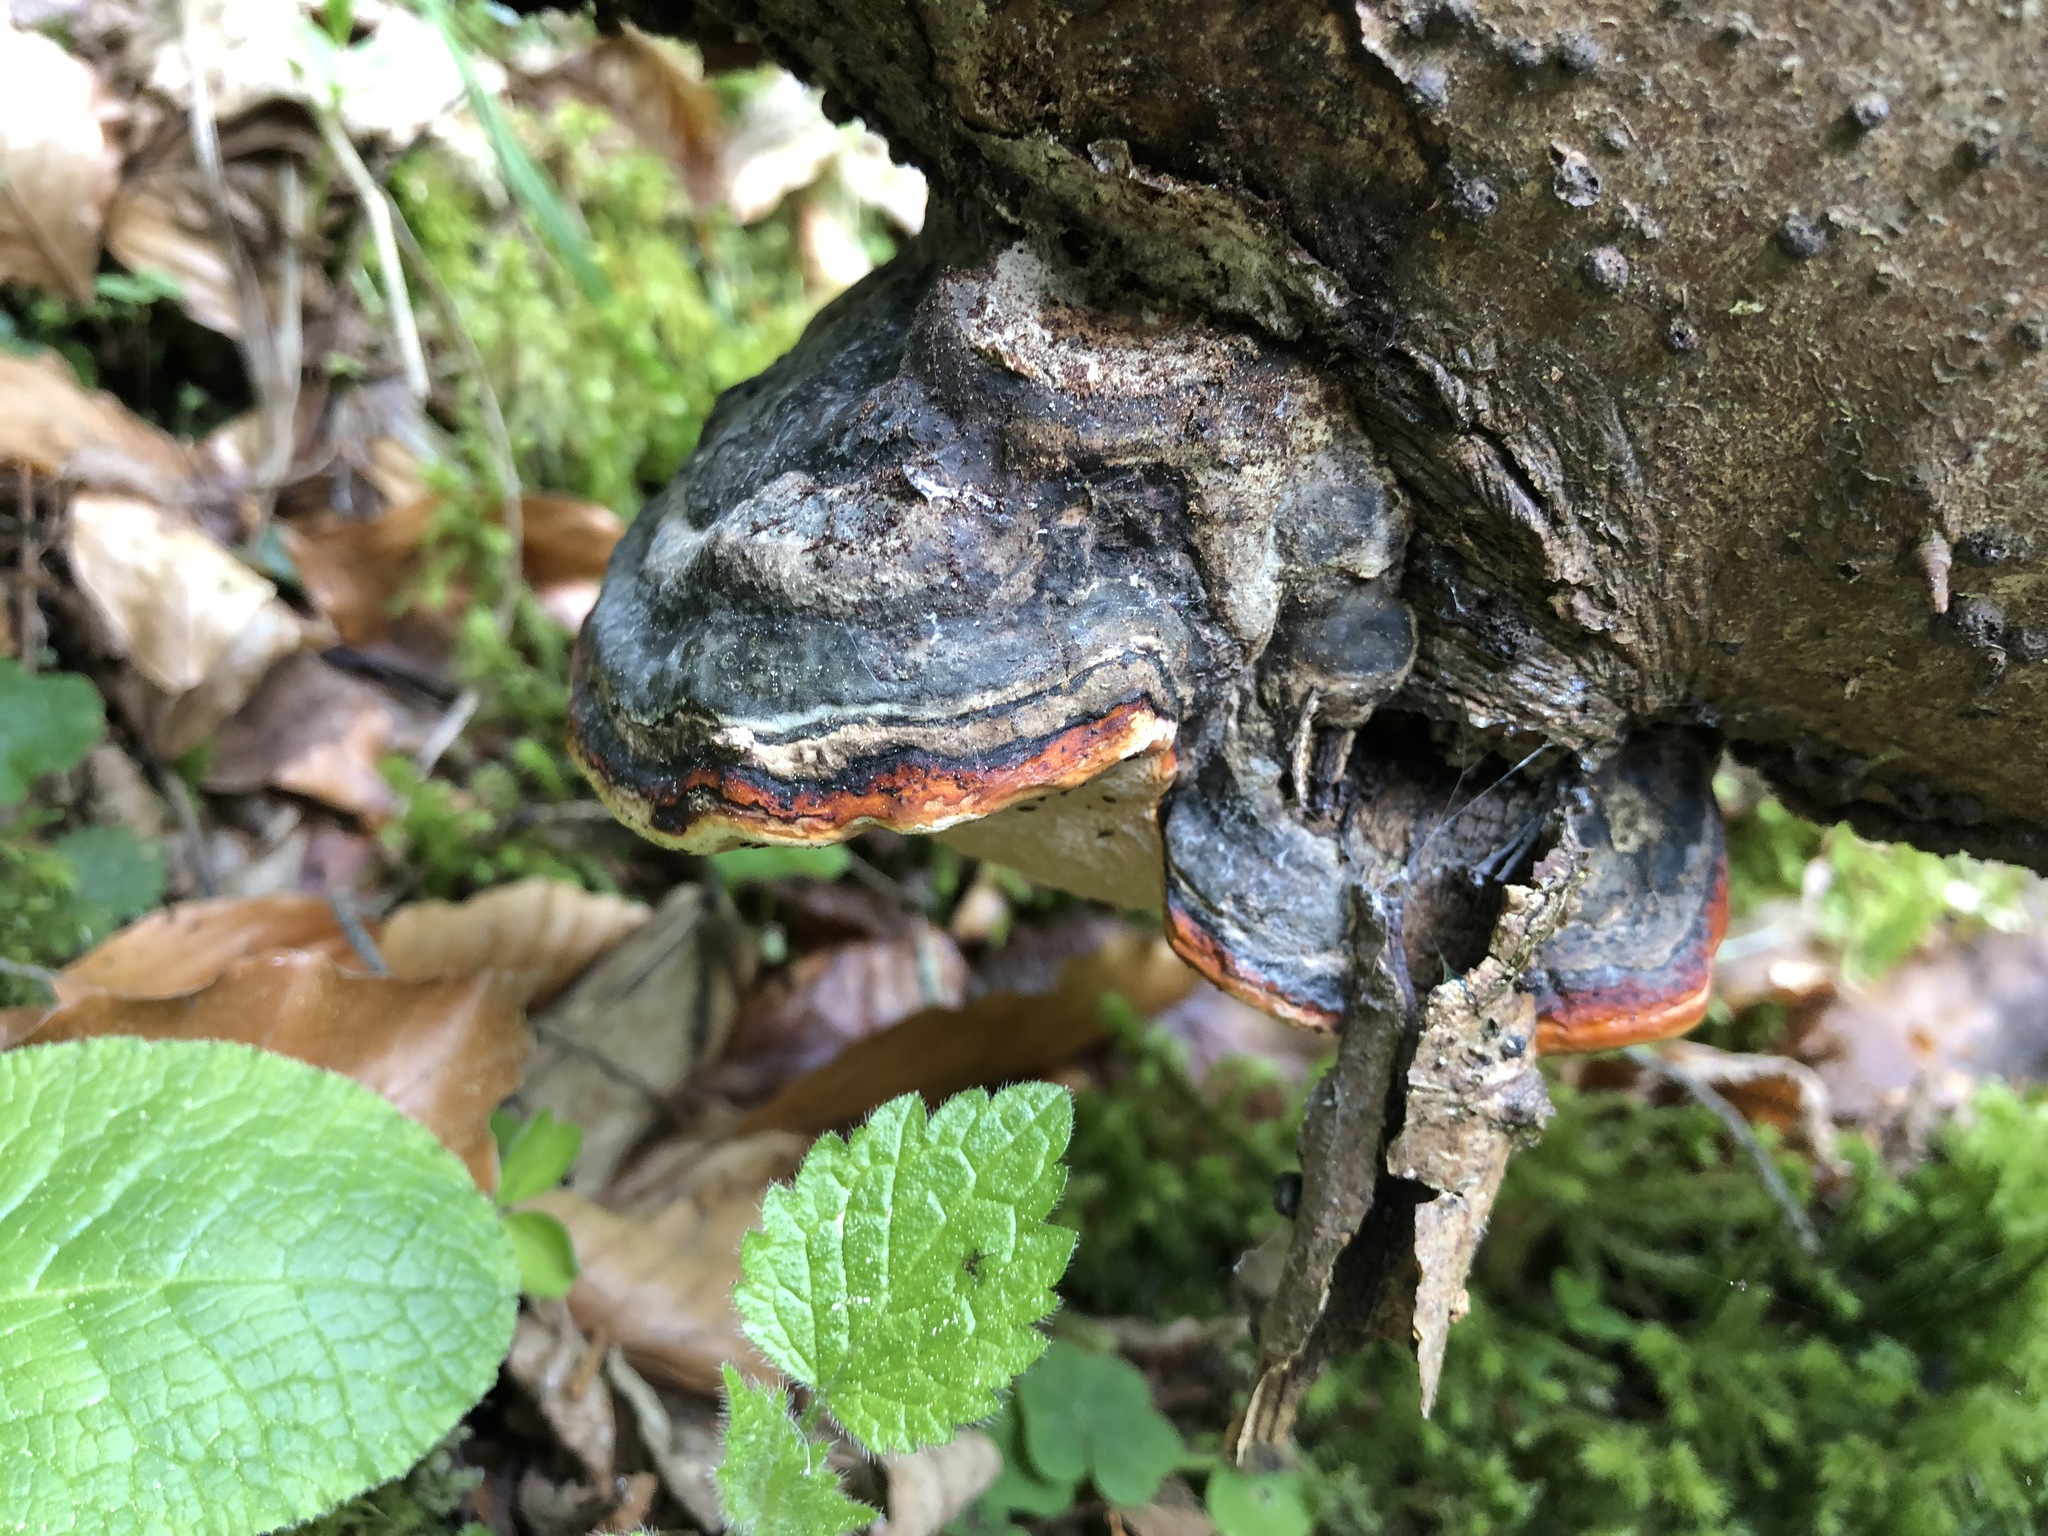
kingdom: Fungi
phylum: Basidiomycota
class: Agaricomycetes
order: Polyporales
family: Fomitopsidaceae
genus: Fomitopsis
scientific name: Fomitopsis pinicola
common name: Red-belted bracket
